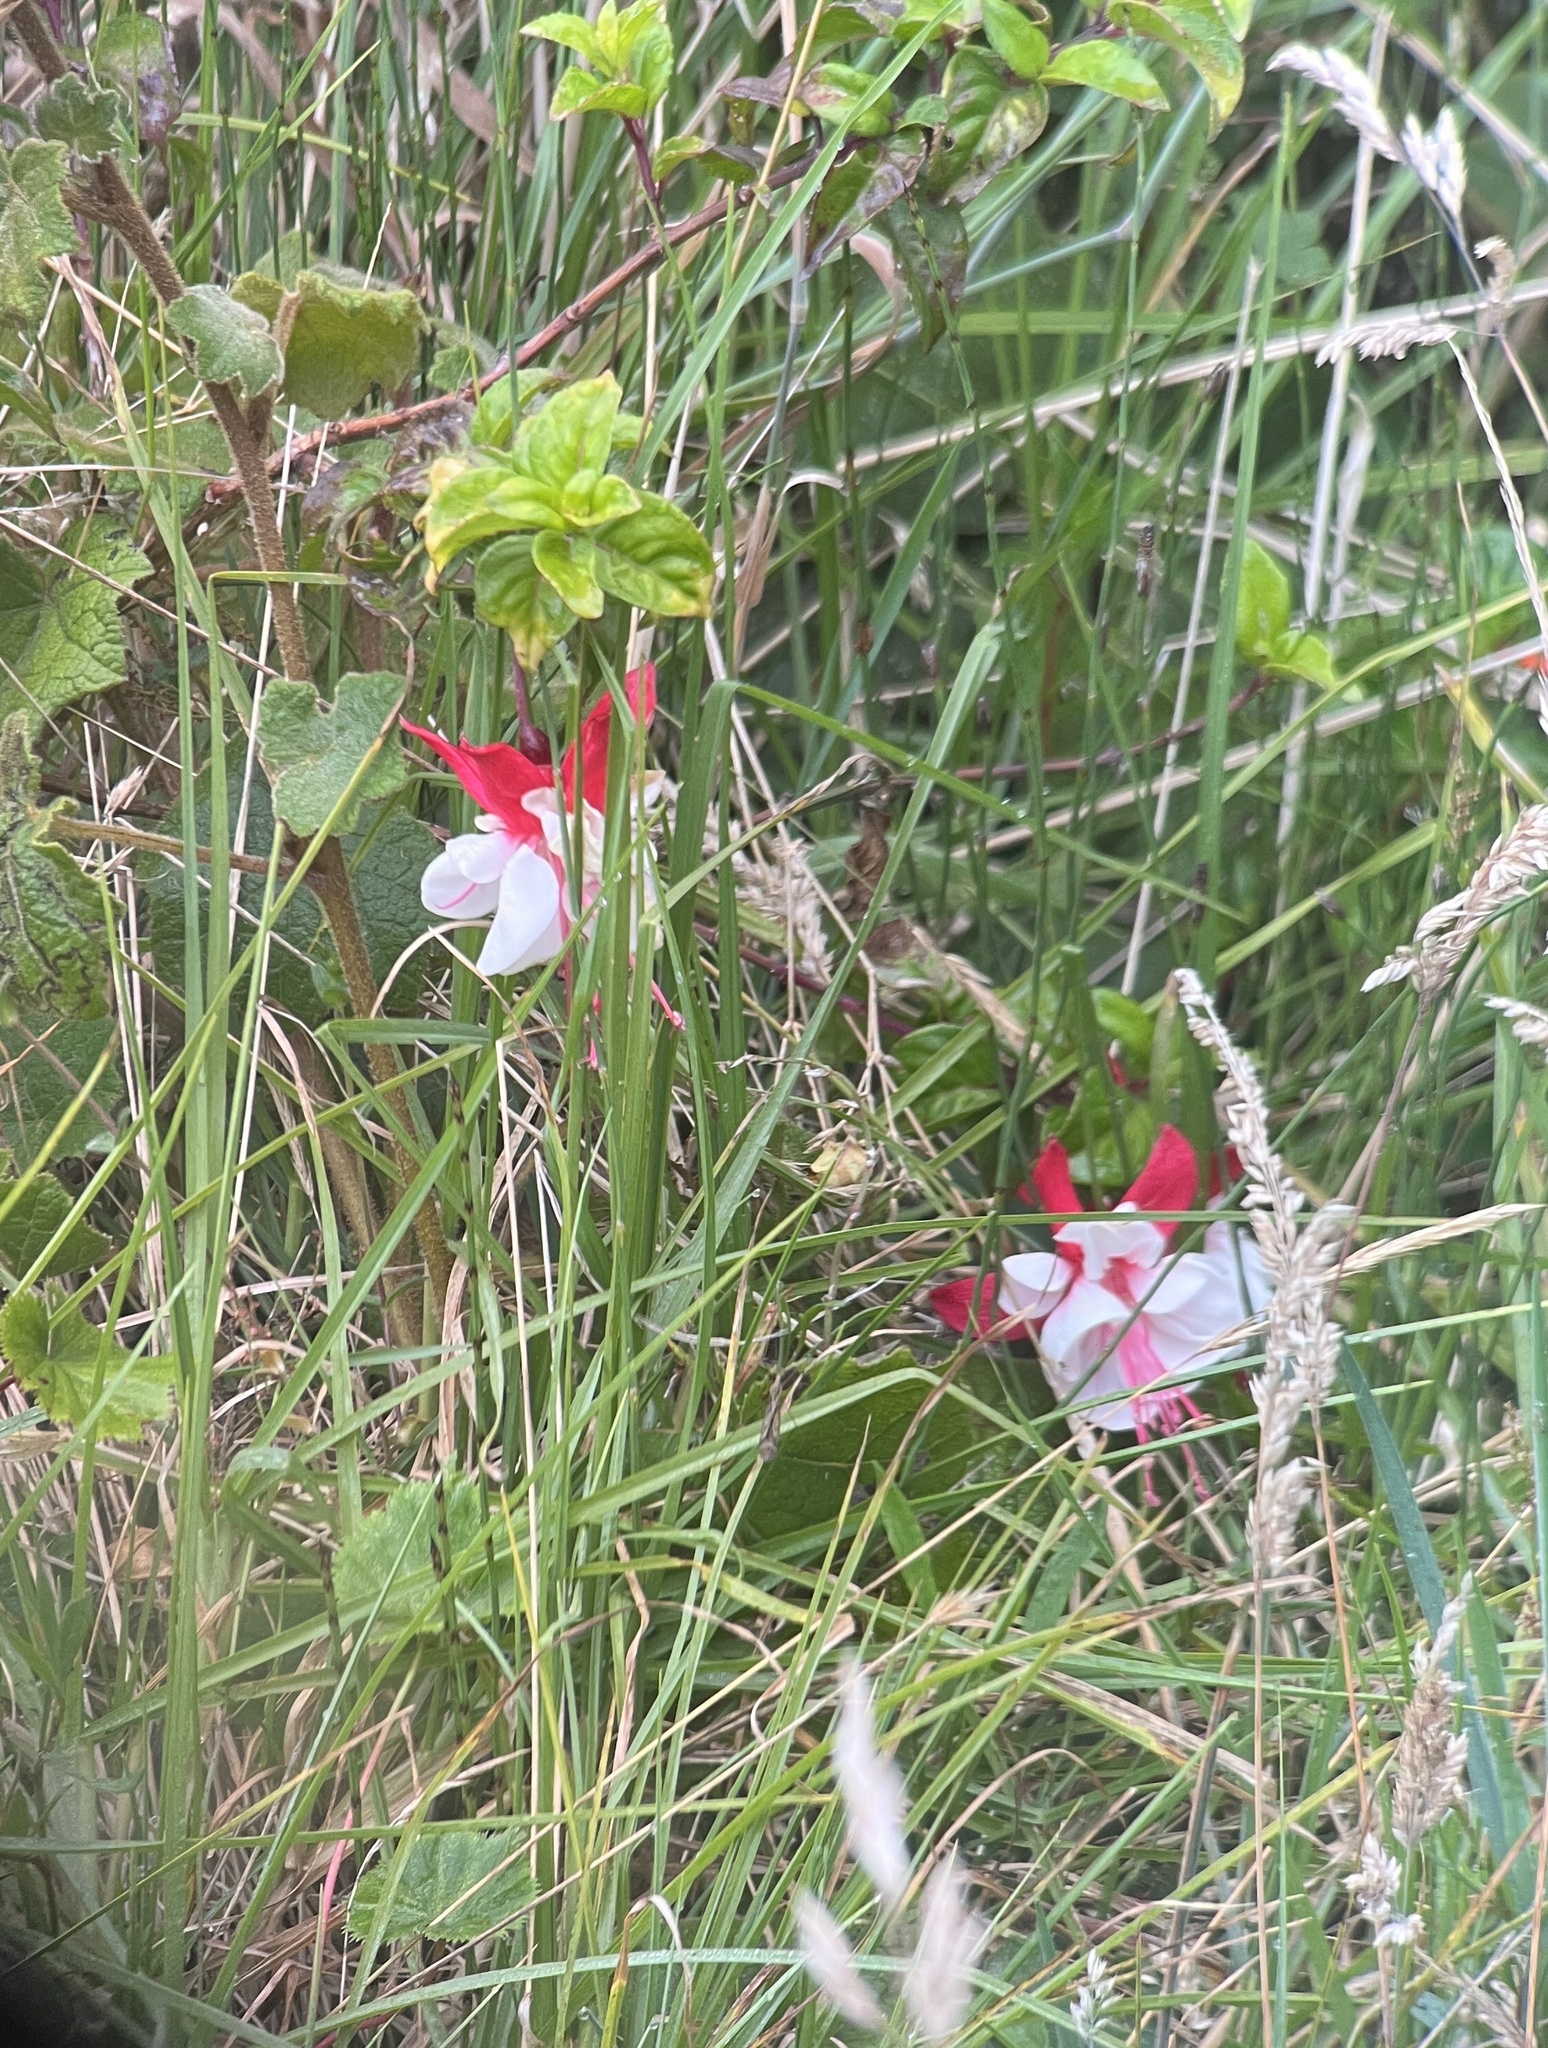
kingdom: Plantae
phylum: Tracheophyta
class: Magnoliopsida
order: Myrtales
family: Onagraceae
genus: Fuchsia
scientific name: Fuchsia hybrida
